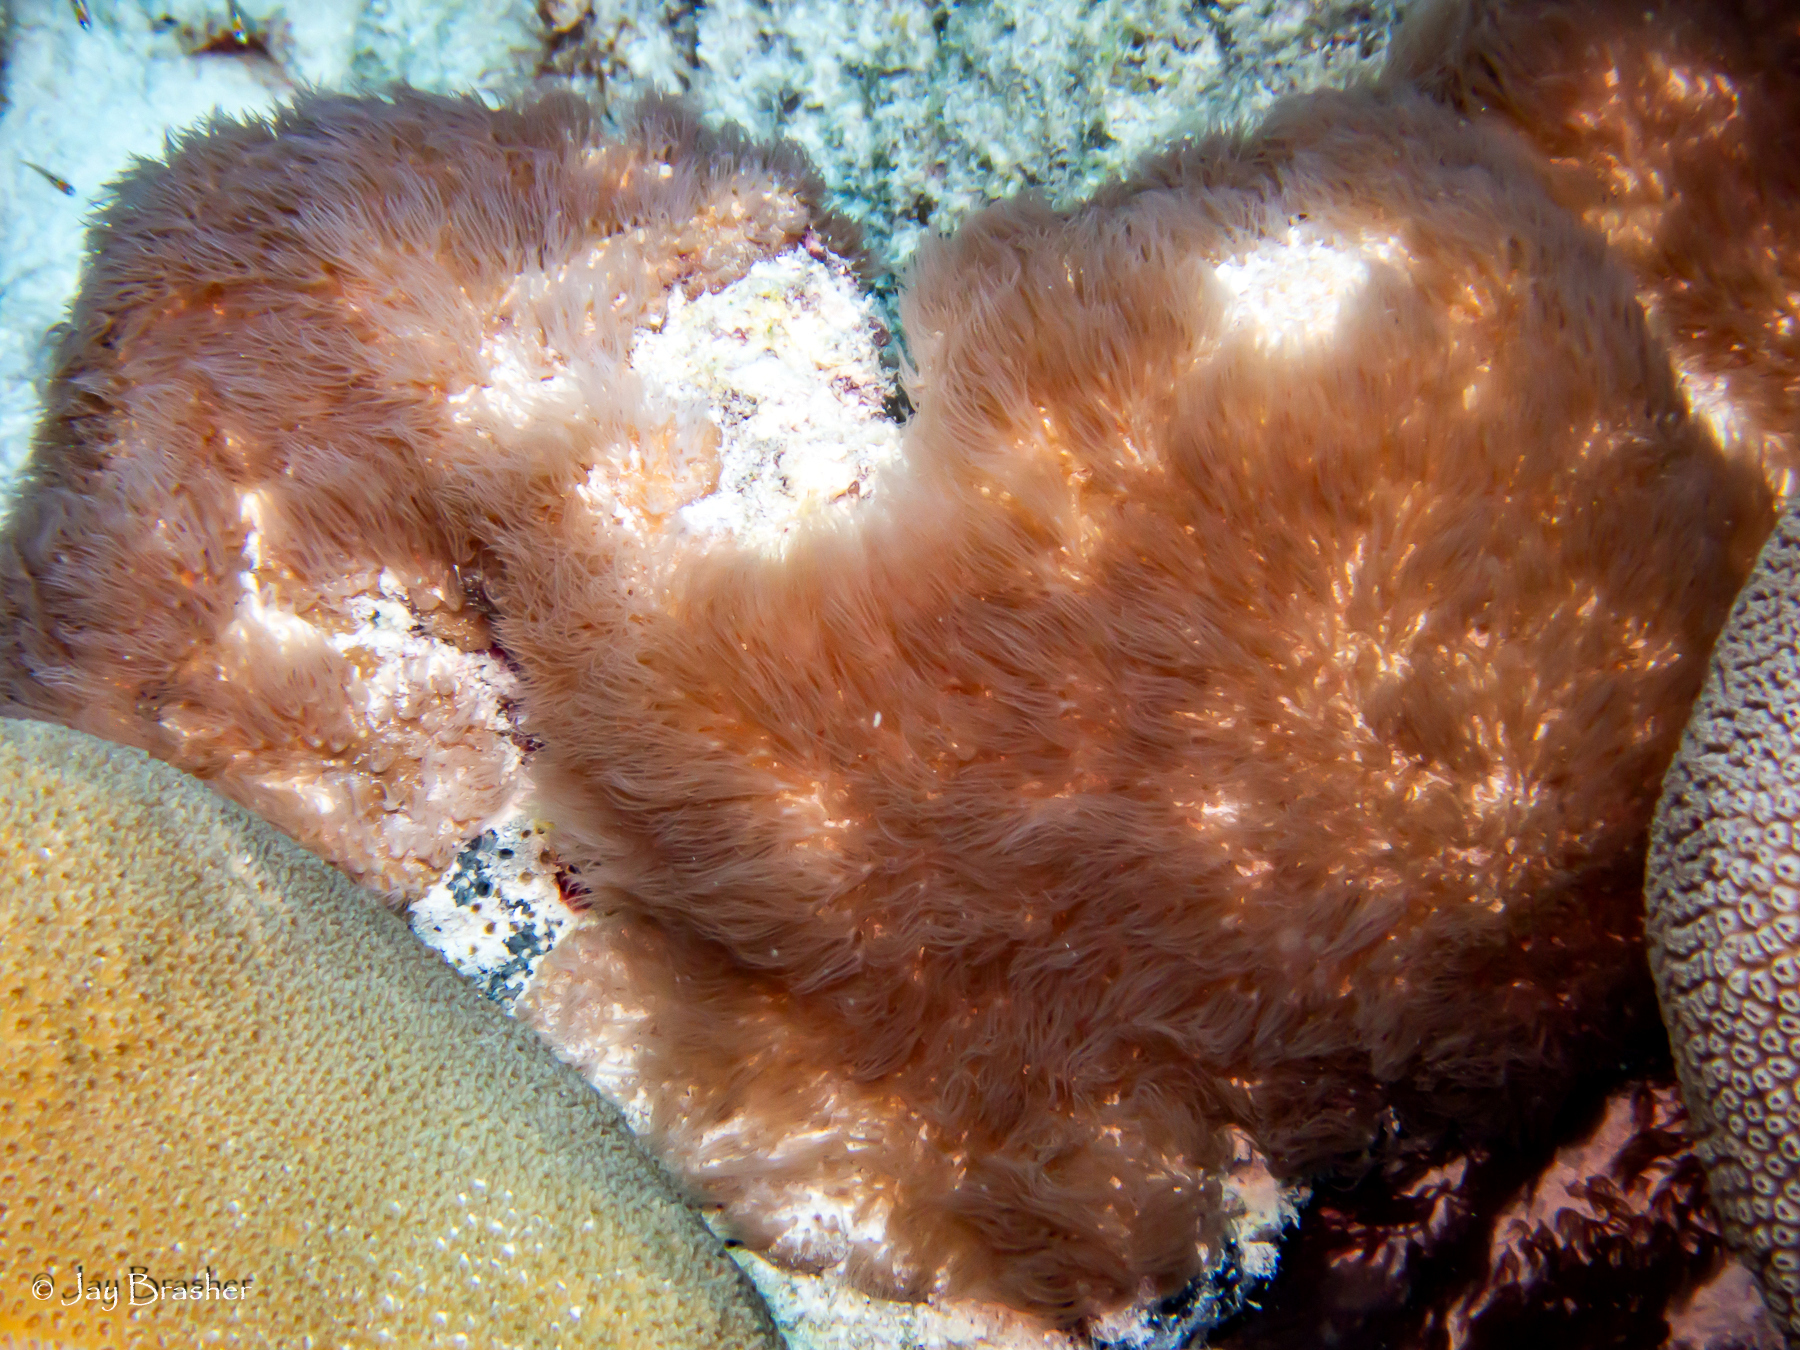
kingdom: Animalia
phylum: Cnidaria
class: Anthozoa
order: Scleralcyonacea
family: Erythropodiidae
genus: Erythropodium
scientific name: Erythropodium caribaeorum
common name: Encrusting gorgonian
